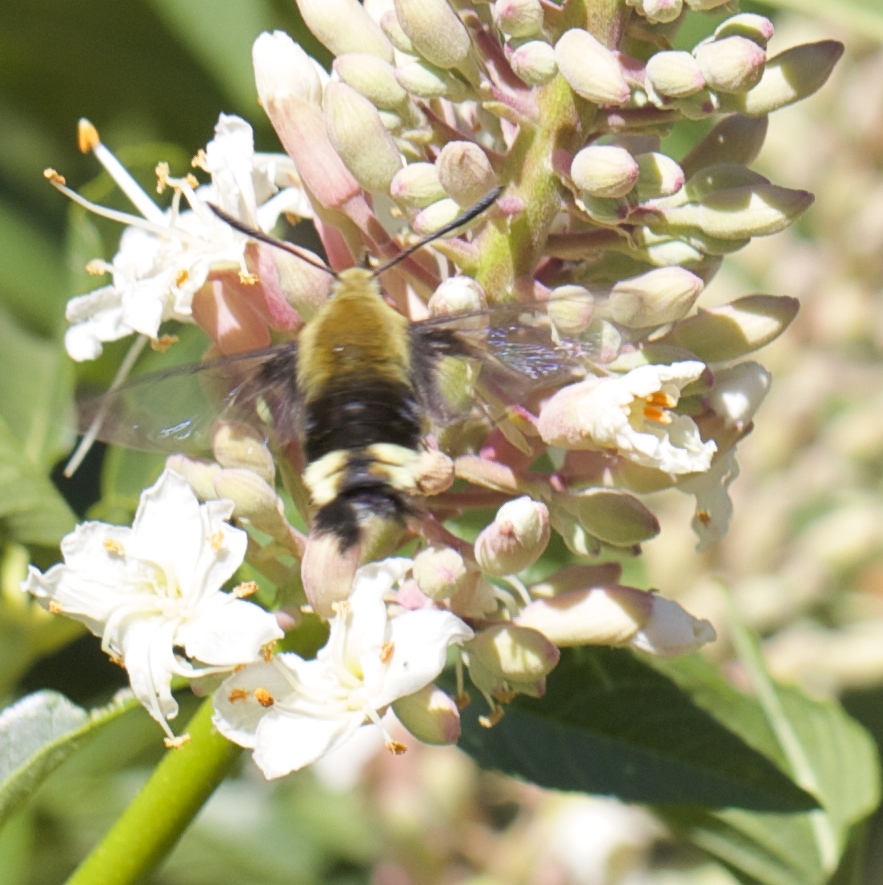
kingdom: Animalia
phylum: Arthropoda
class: Insecta
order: Lepidoptera
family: Sphingidae
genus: Hemaris
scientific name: Hemaris thetis
